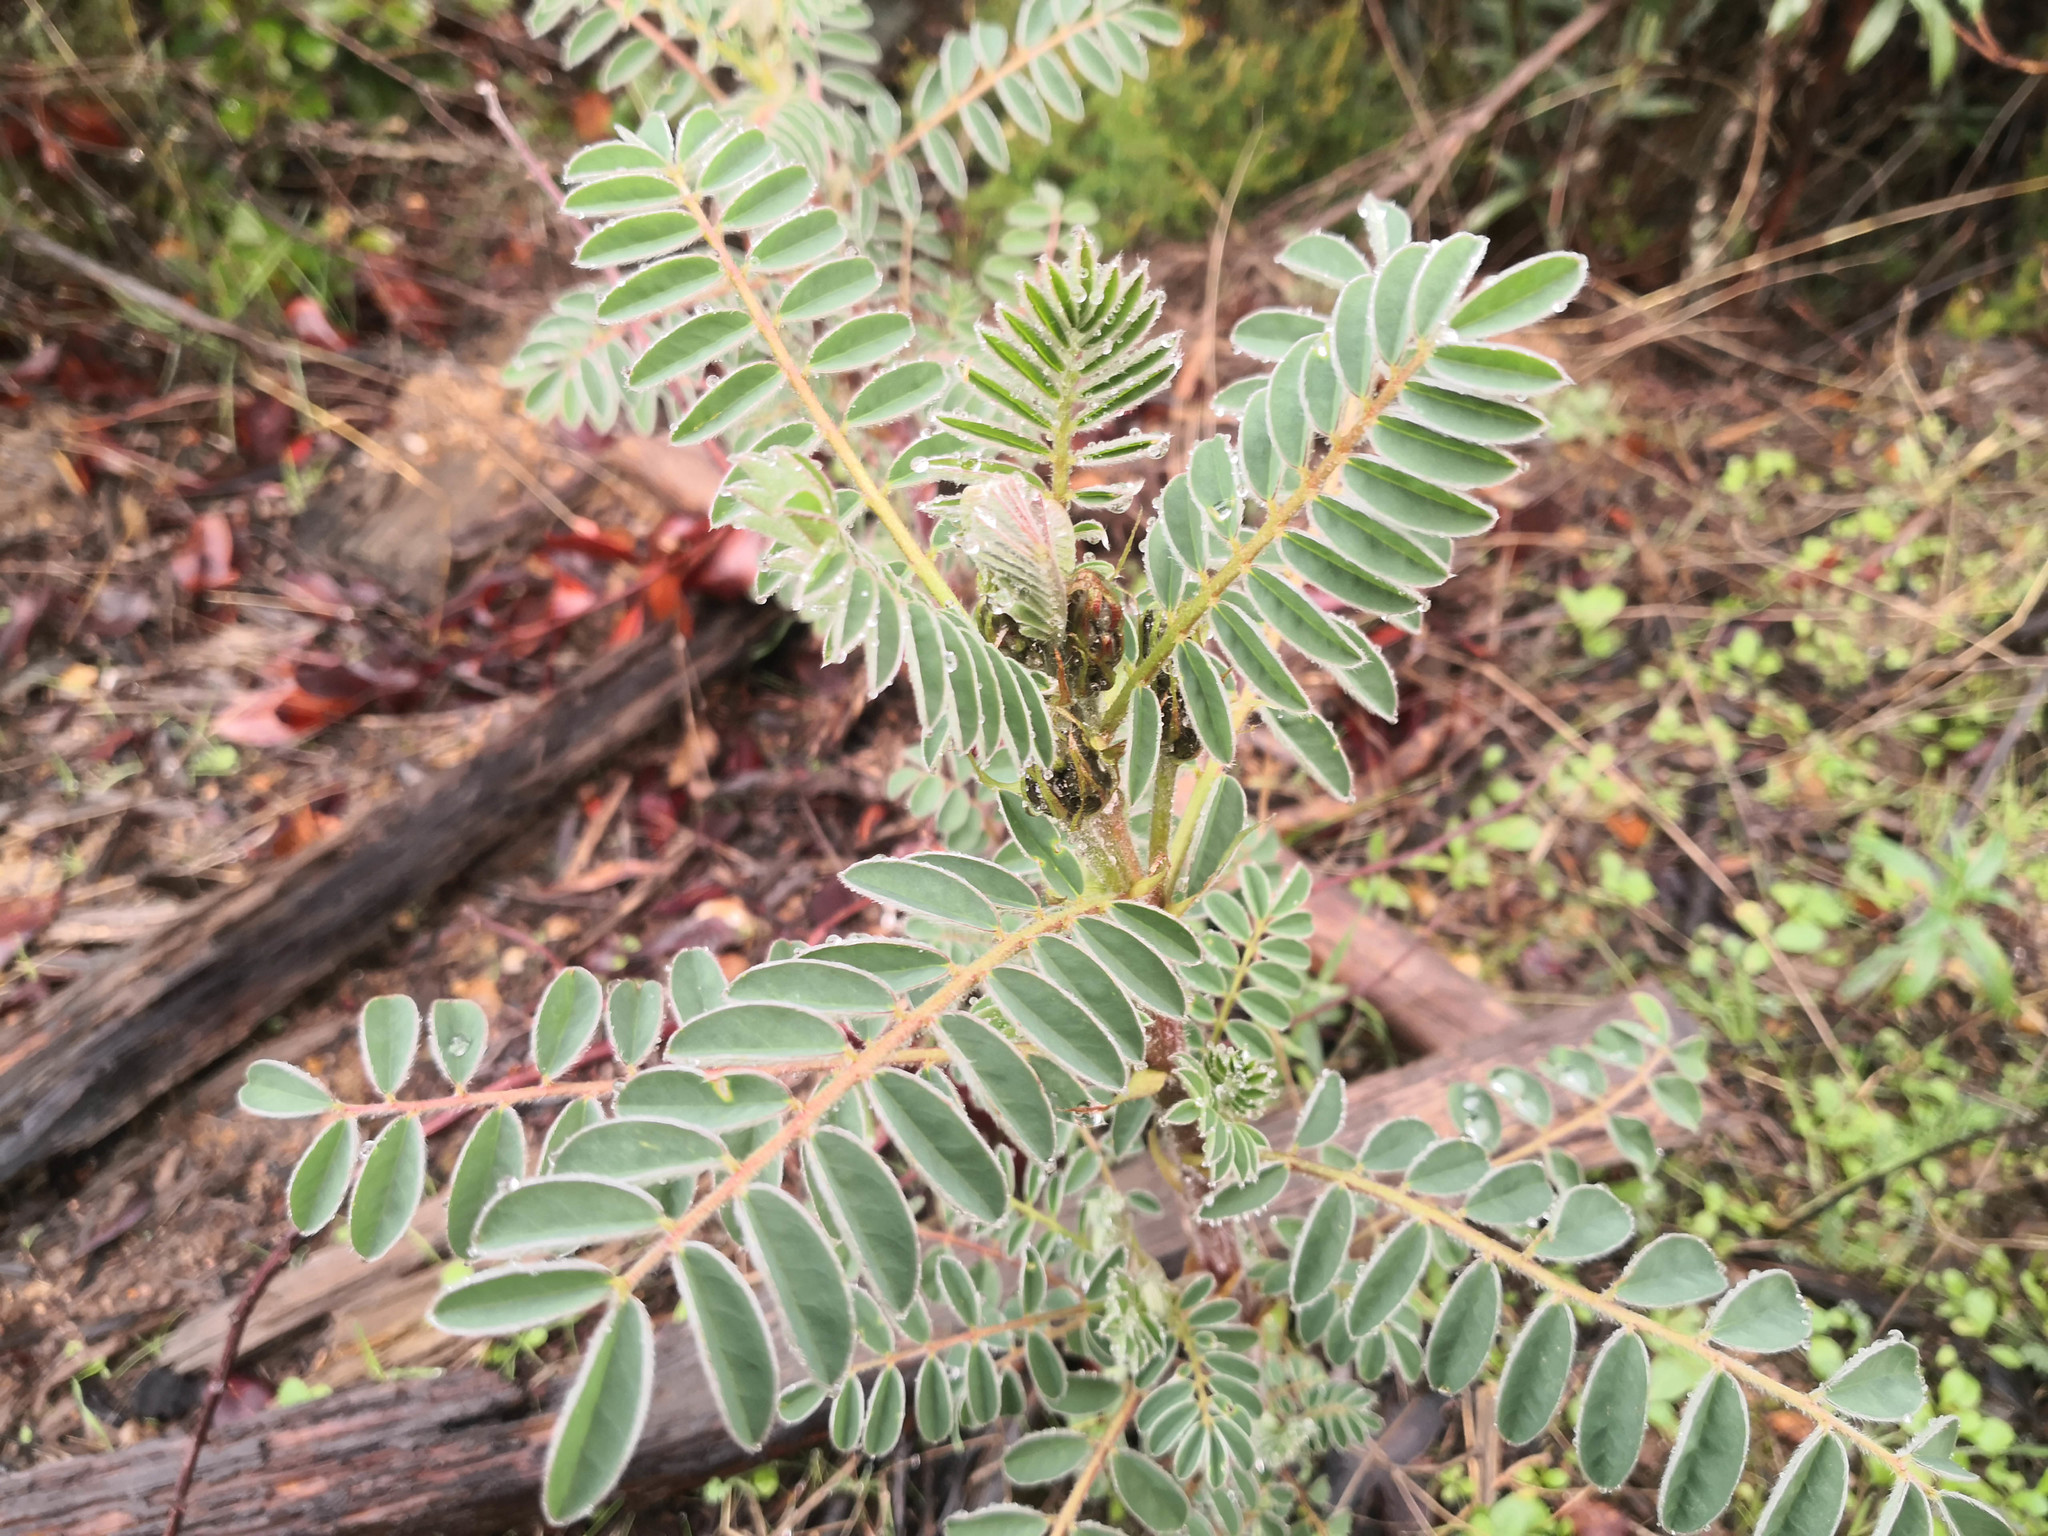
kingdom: Plantae
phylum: Tracheophyta
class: Magnoliopsida
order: Fabales
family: Fabaceae
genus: Erophaca
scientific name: Erophaca baetica
